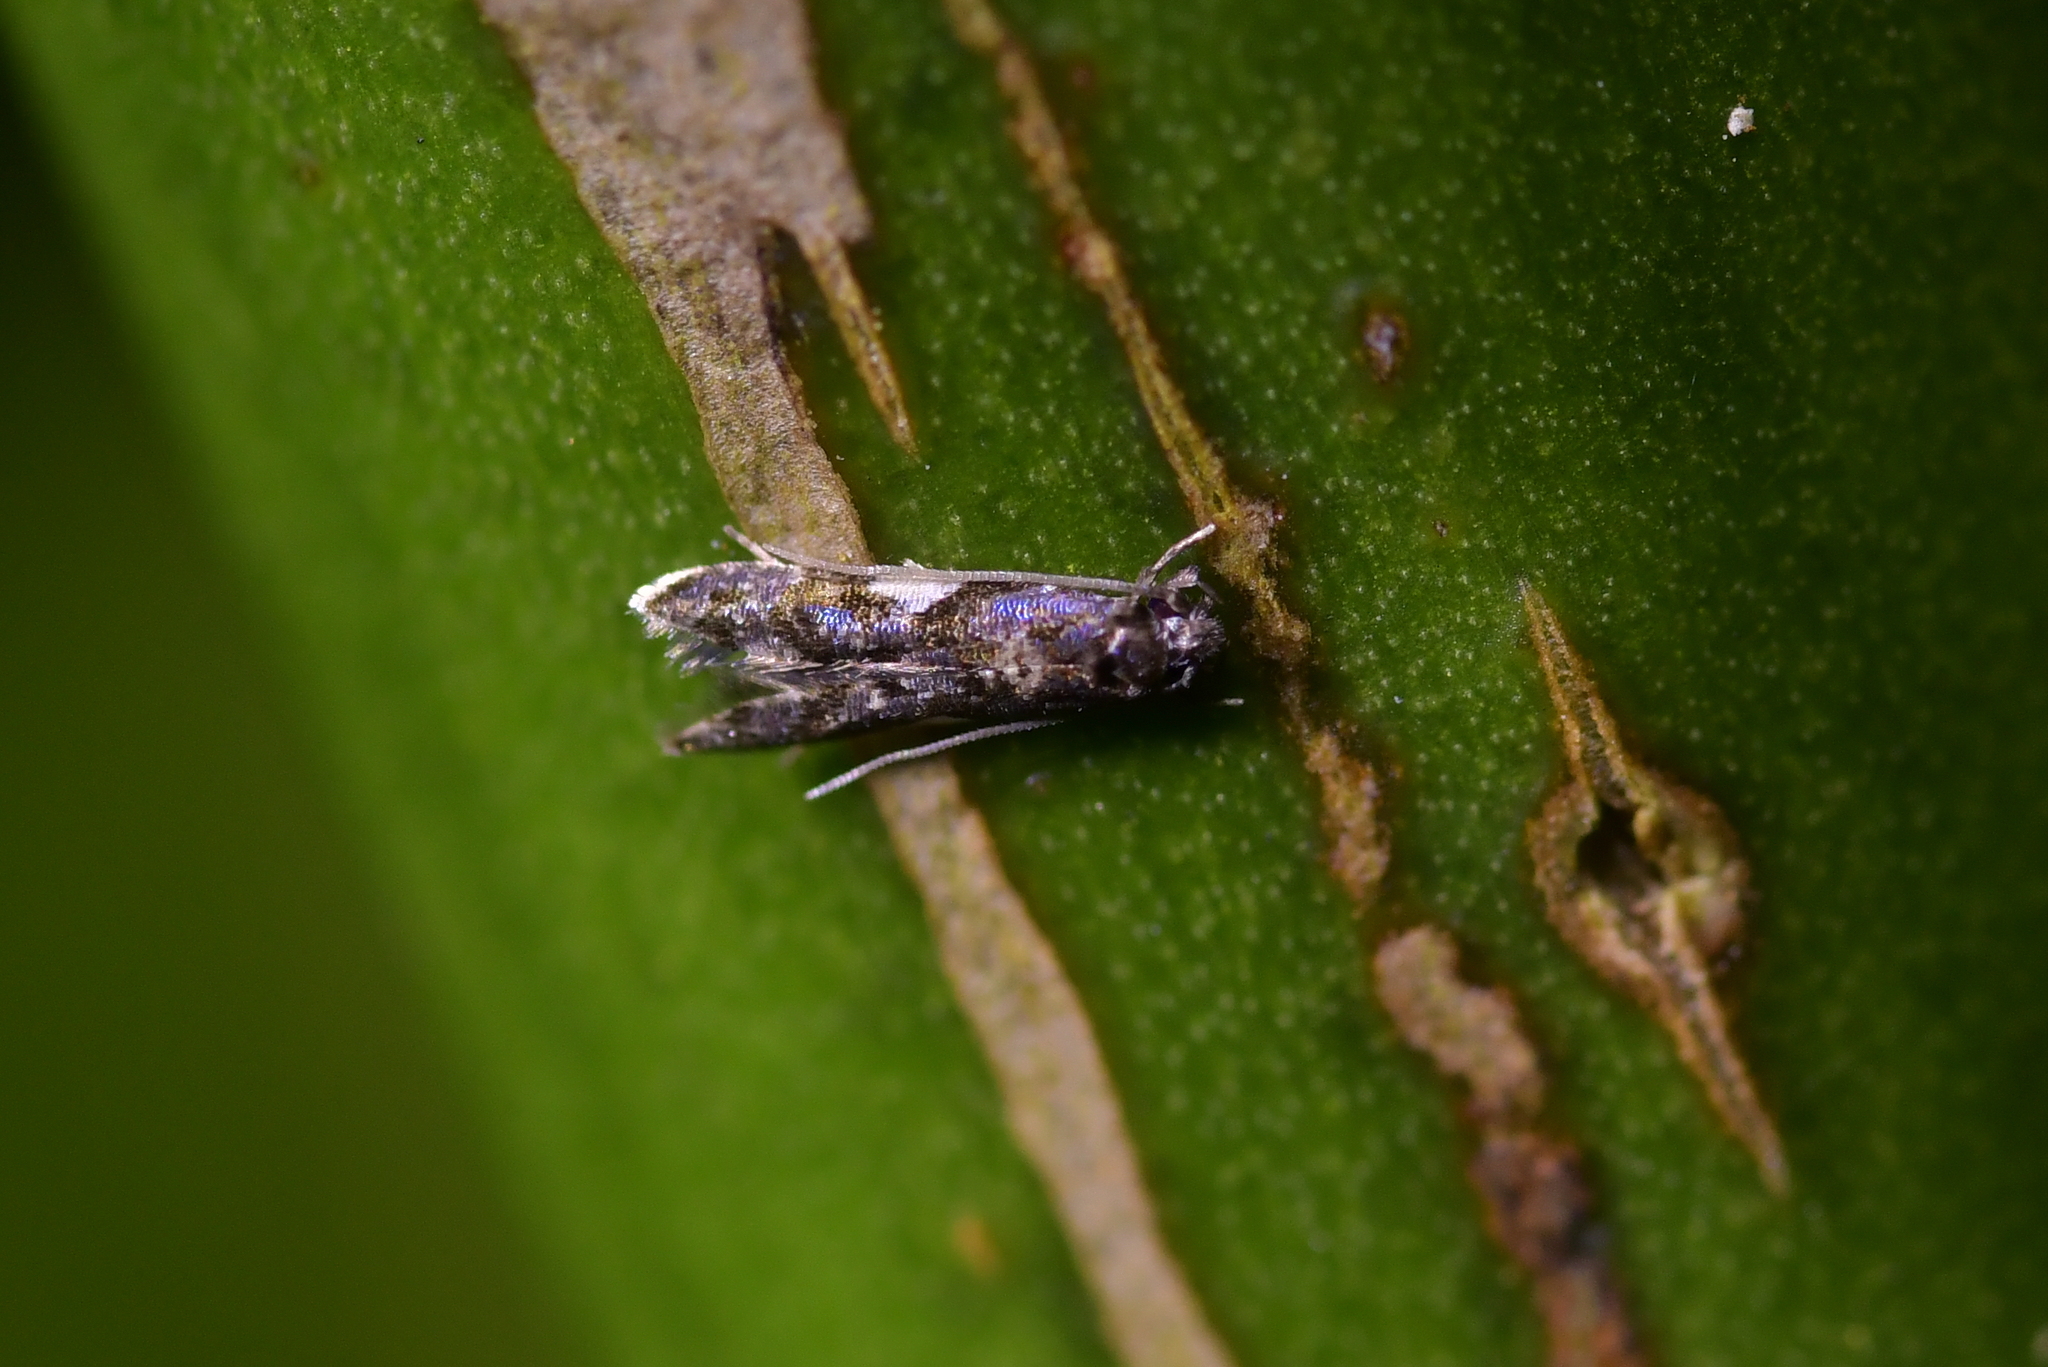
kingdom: Animalia
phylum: Arthropoda
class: Insecta
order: Lepidoptera
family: Tineidae
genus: Habrophila
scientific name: Habrophila compseuta
